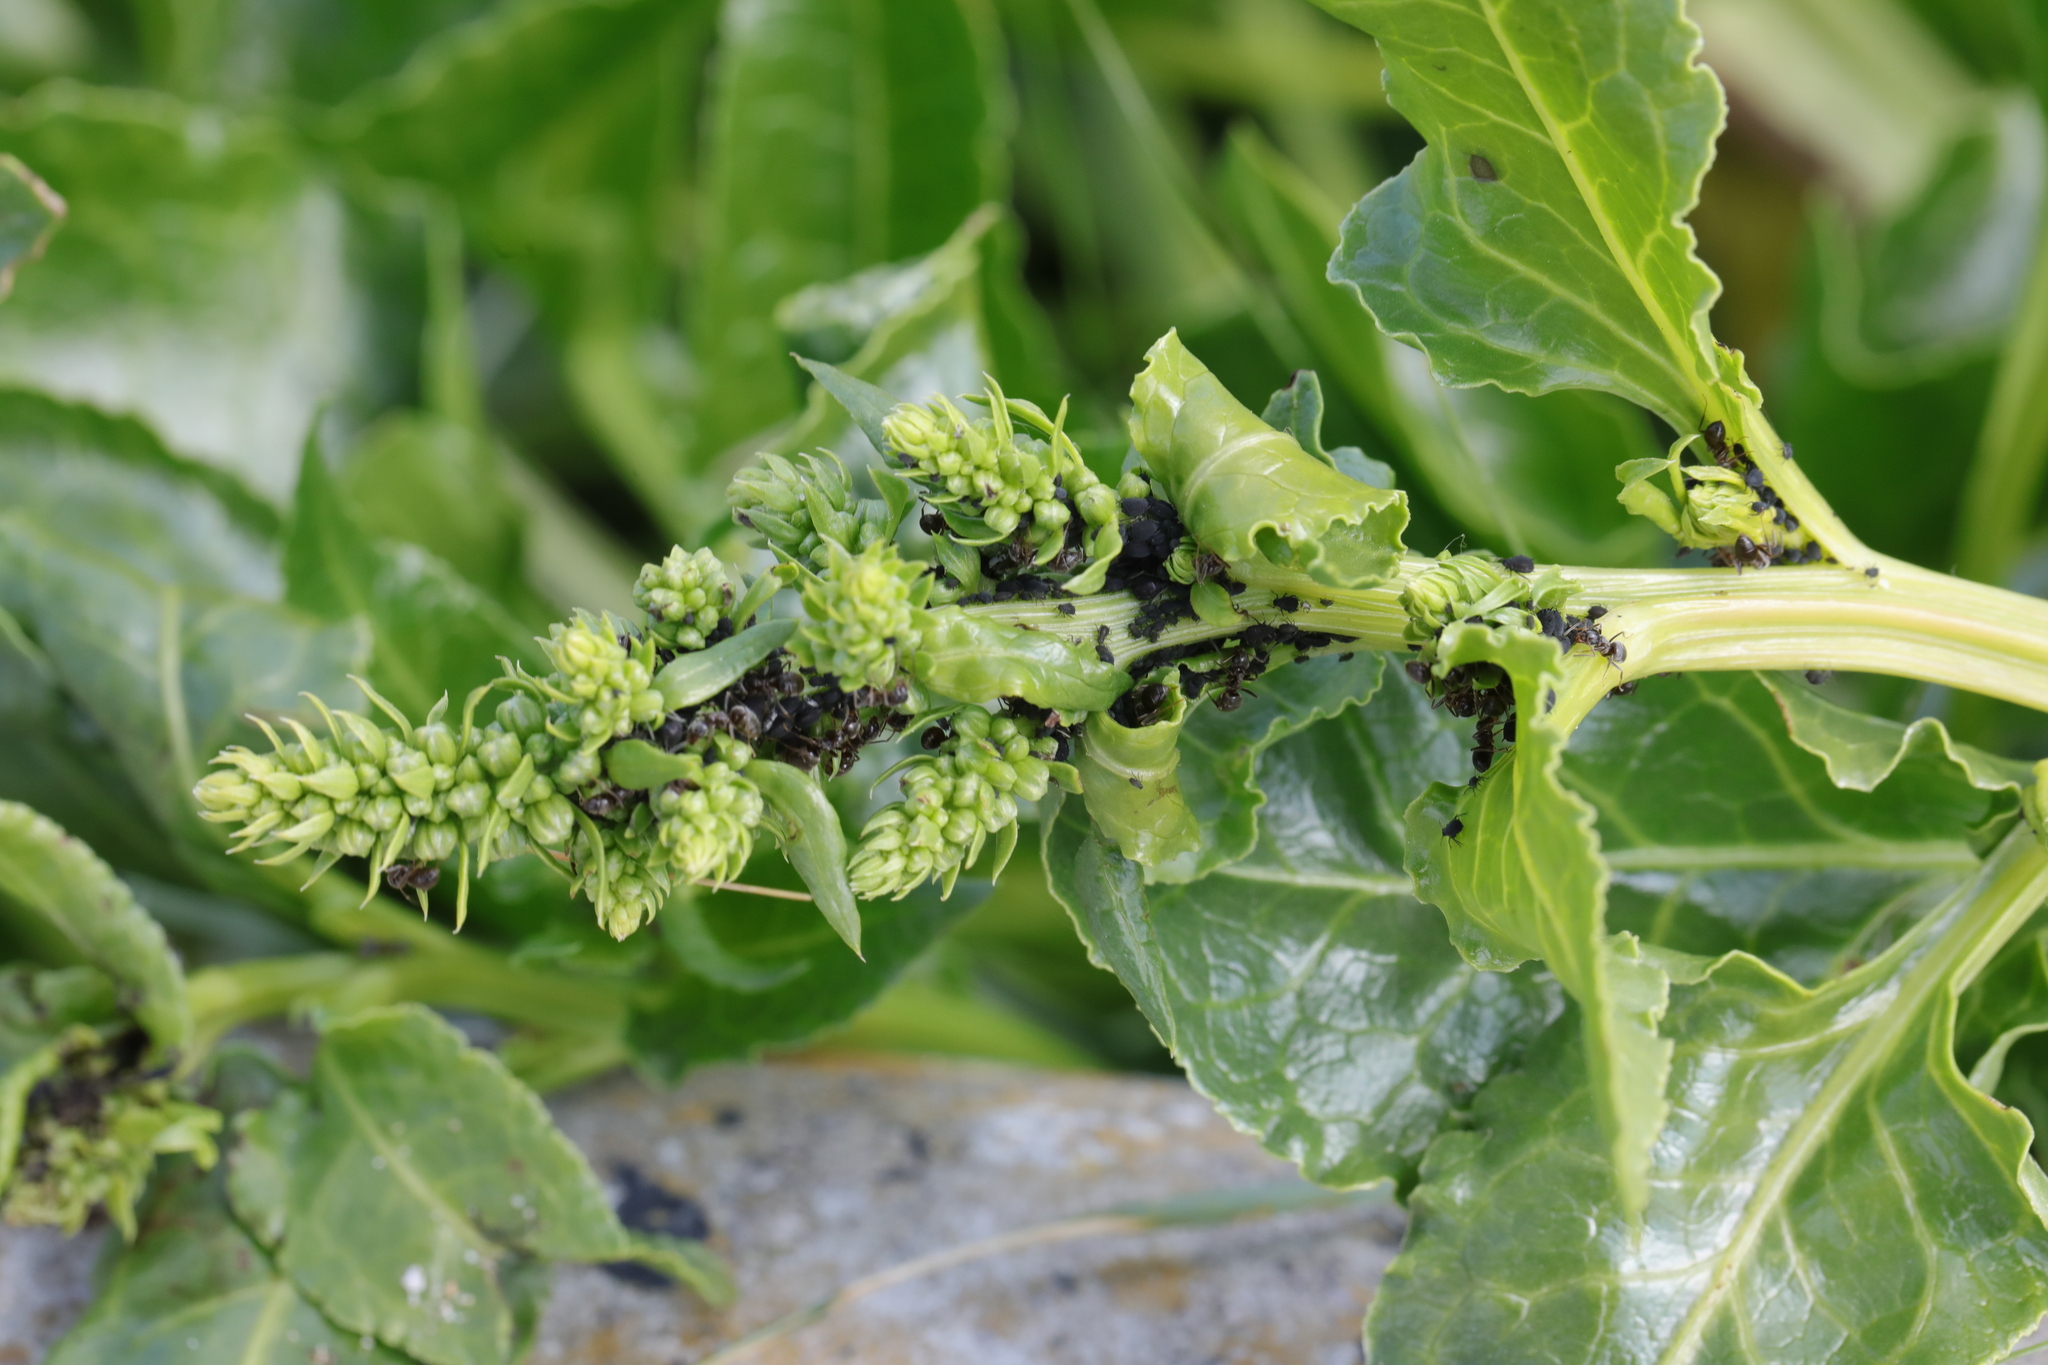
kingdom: Plantae
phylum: Tracheophyta
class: Magnoliopsida
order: Caryophyllales
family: Amaranthaceae
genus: Beta
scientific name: Beta vulgaris
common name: Beet
